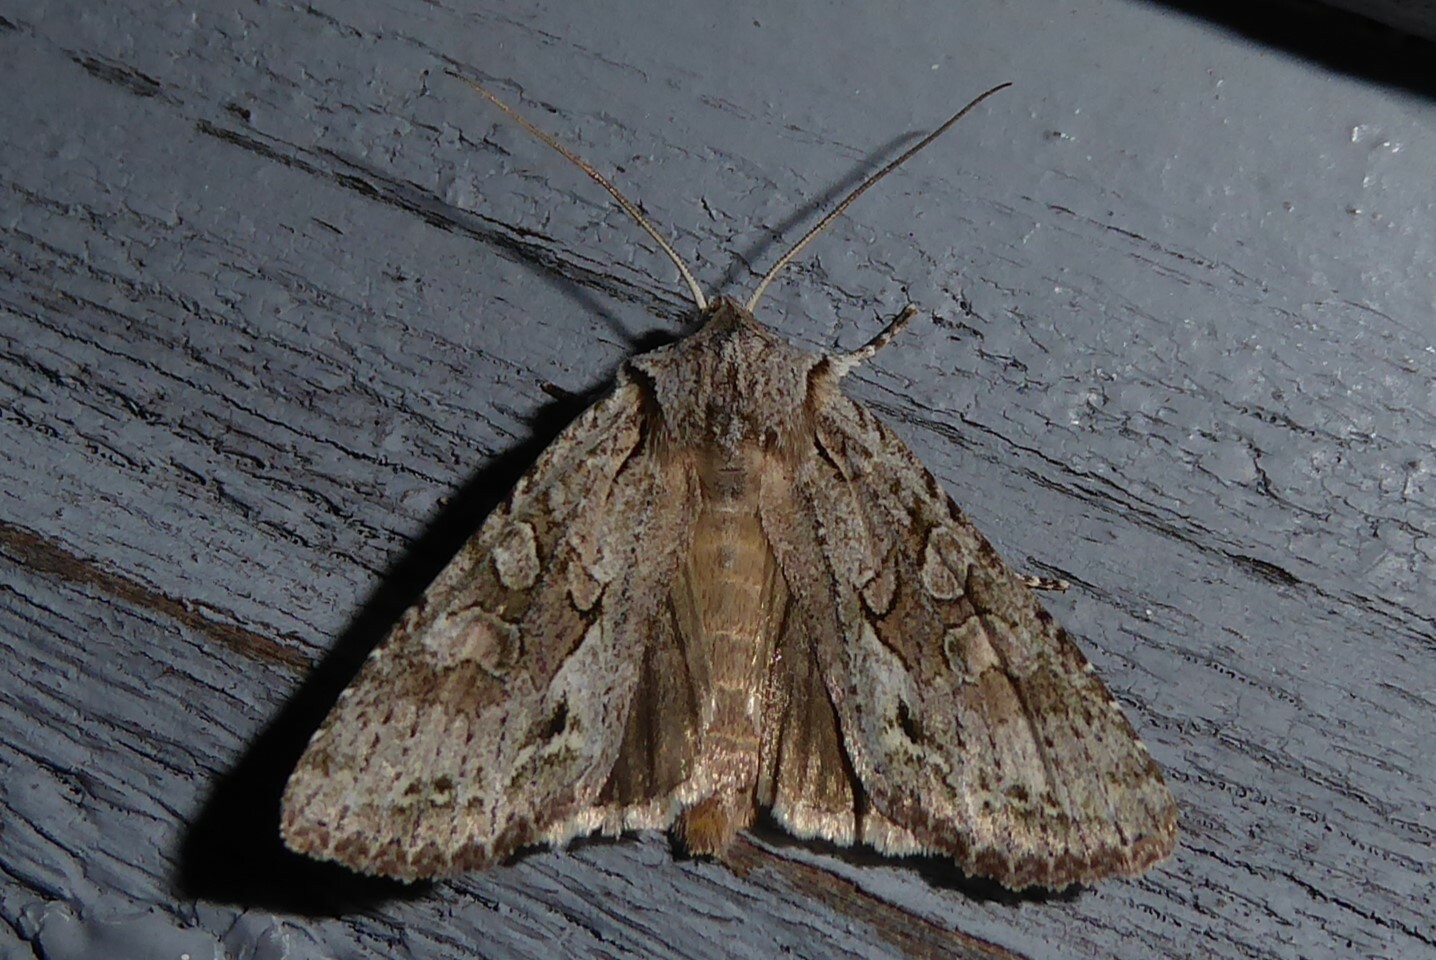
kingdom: Animalia
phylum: Arthropoda
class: Insecta
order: Lepidoptera
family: Noctuidae
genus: Ichneutica
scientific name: Ichneutica mutans
